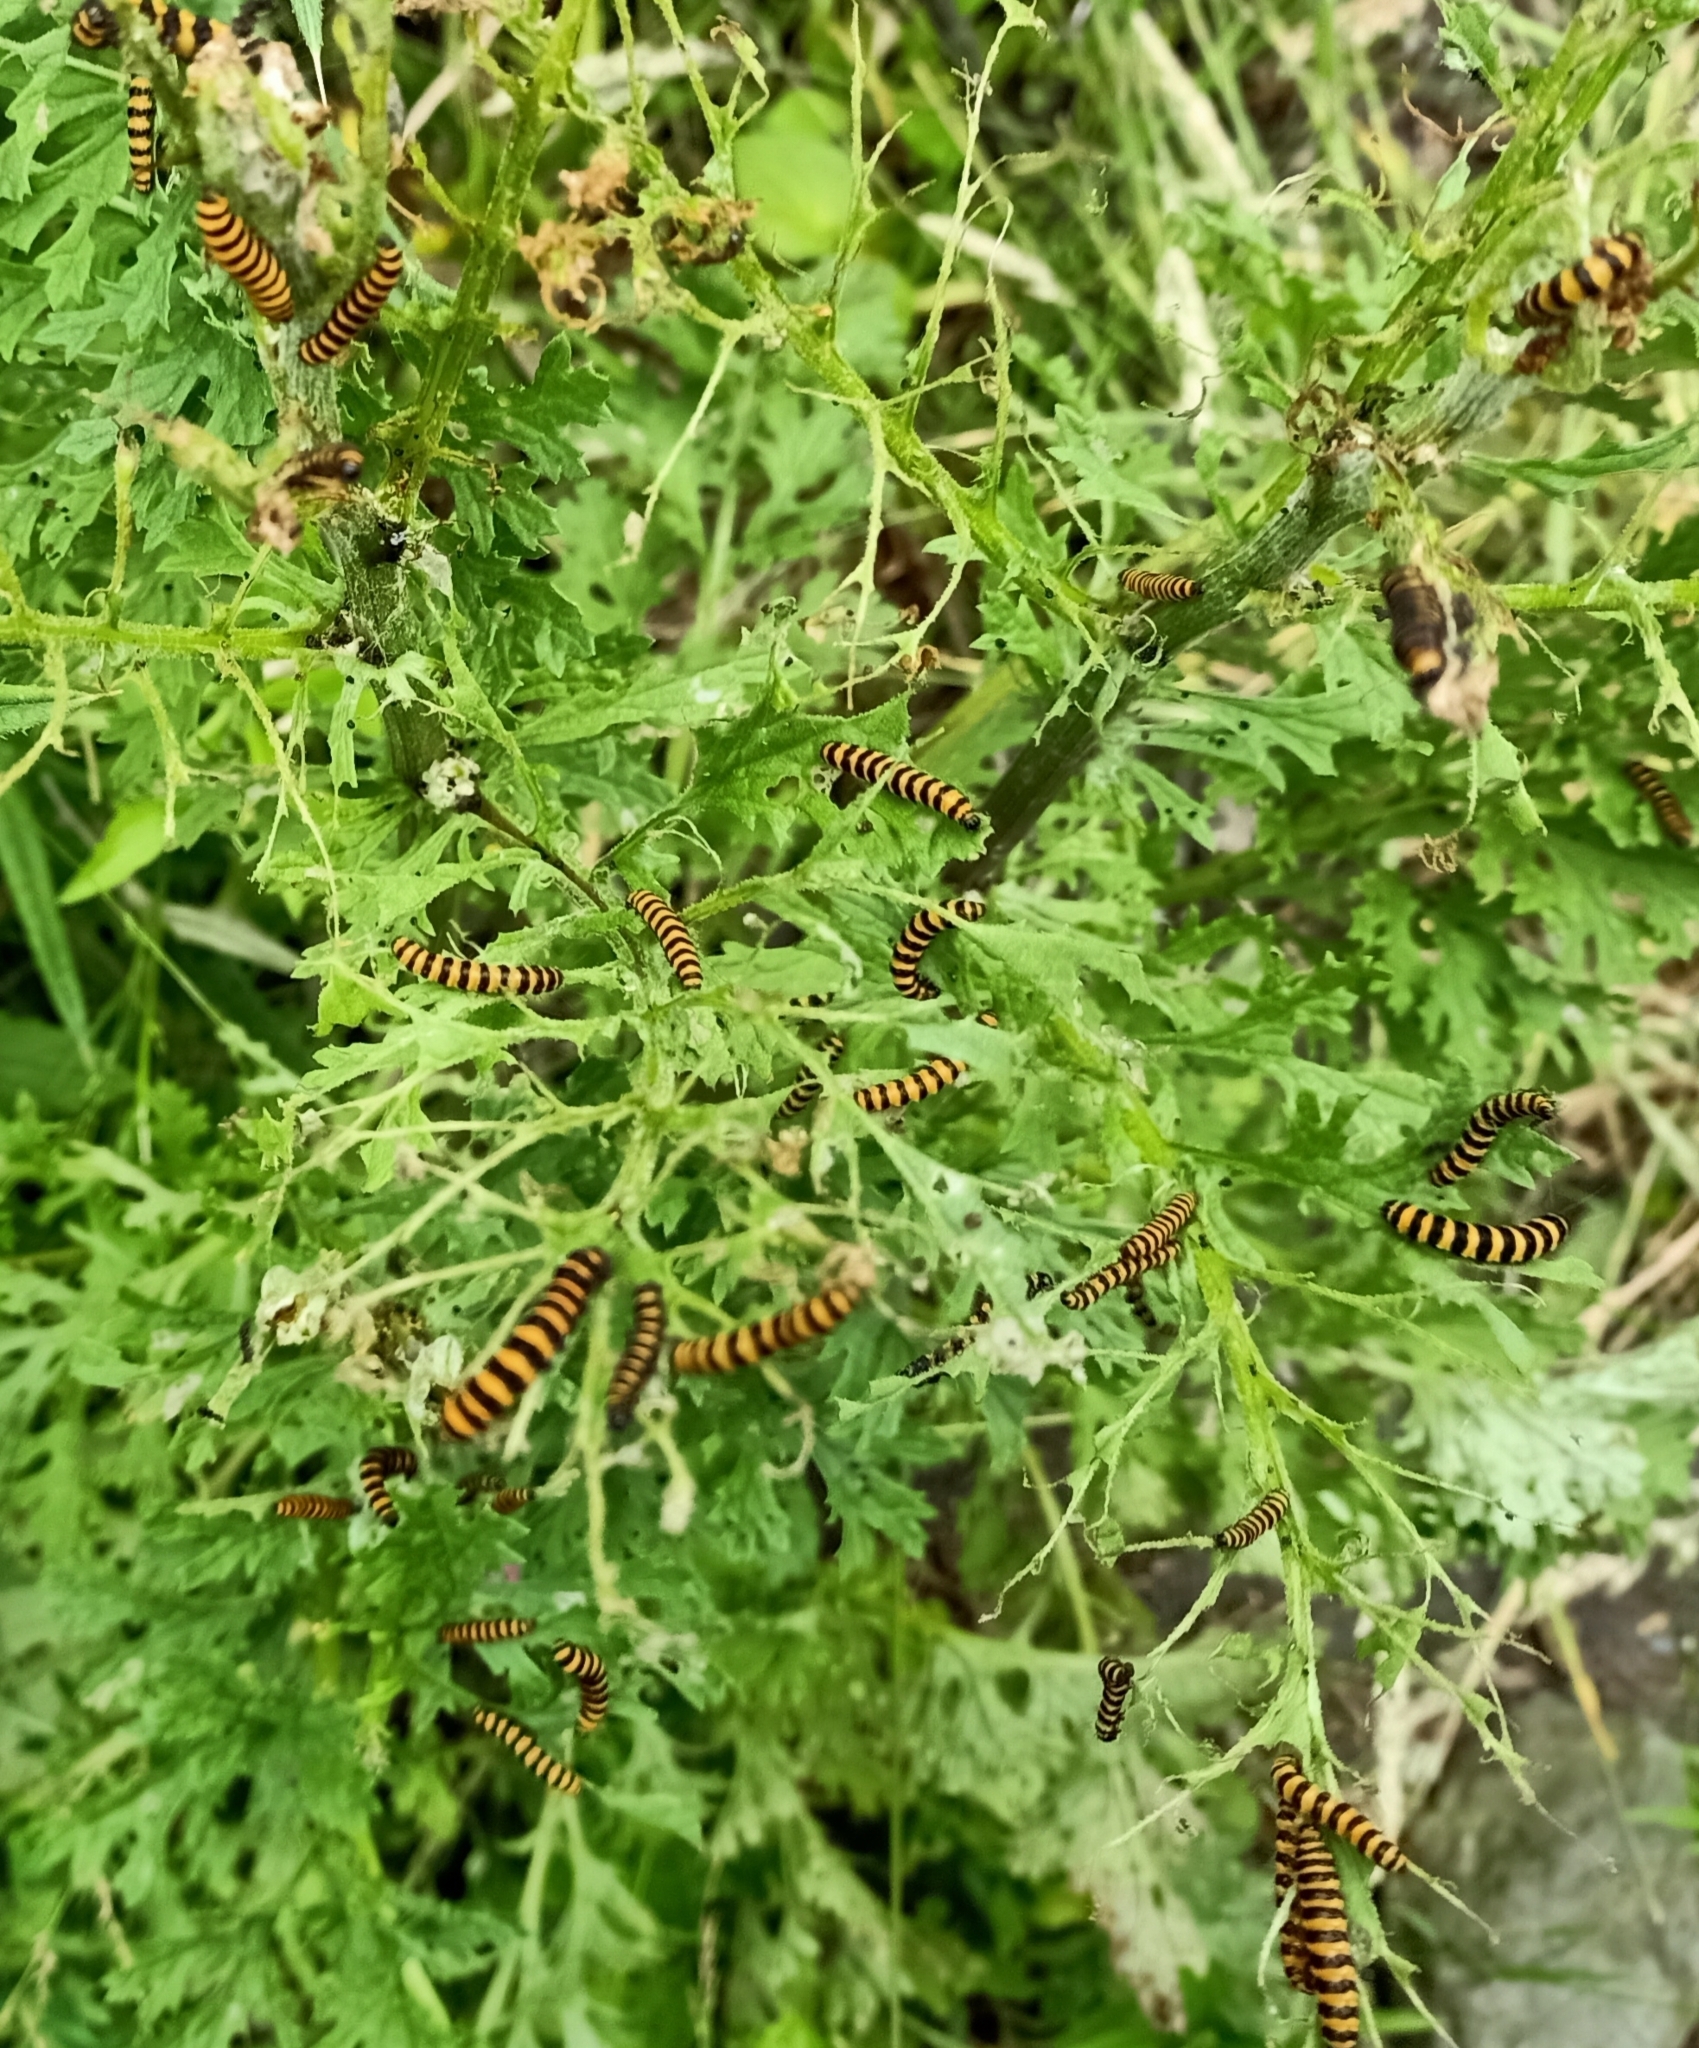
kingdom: Plantae
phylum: Tracheophyta
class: Magnoliopsida
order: Asterales
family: Asteraceae
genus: Jacobaea
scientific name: Jacobaea vulgaris
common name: Stinking willie
